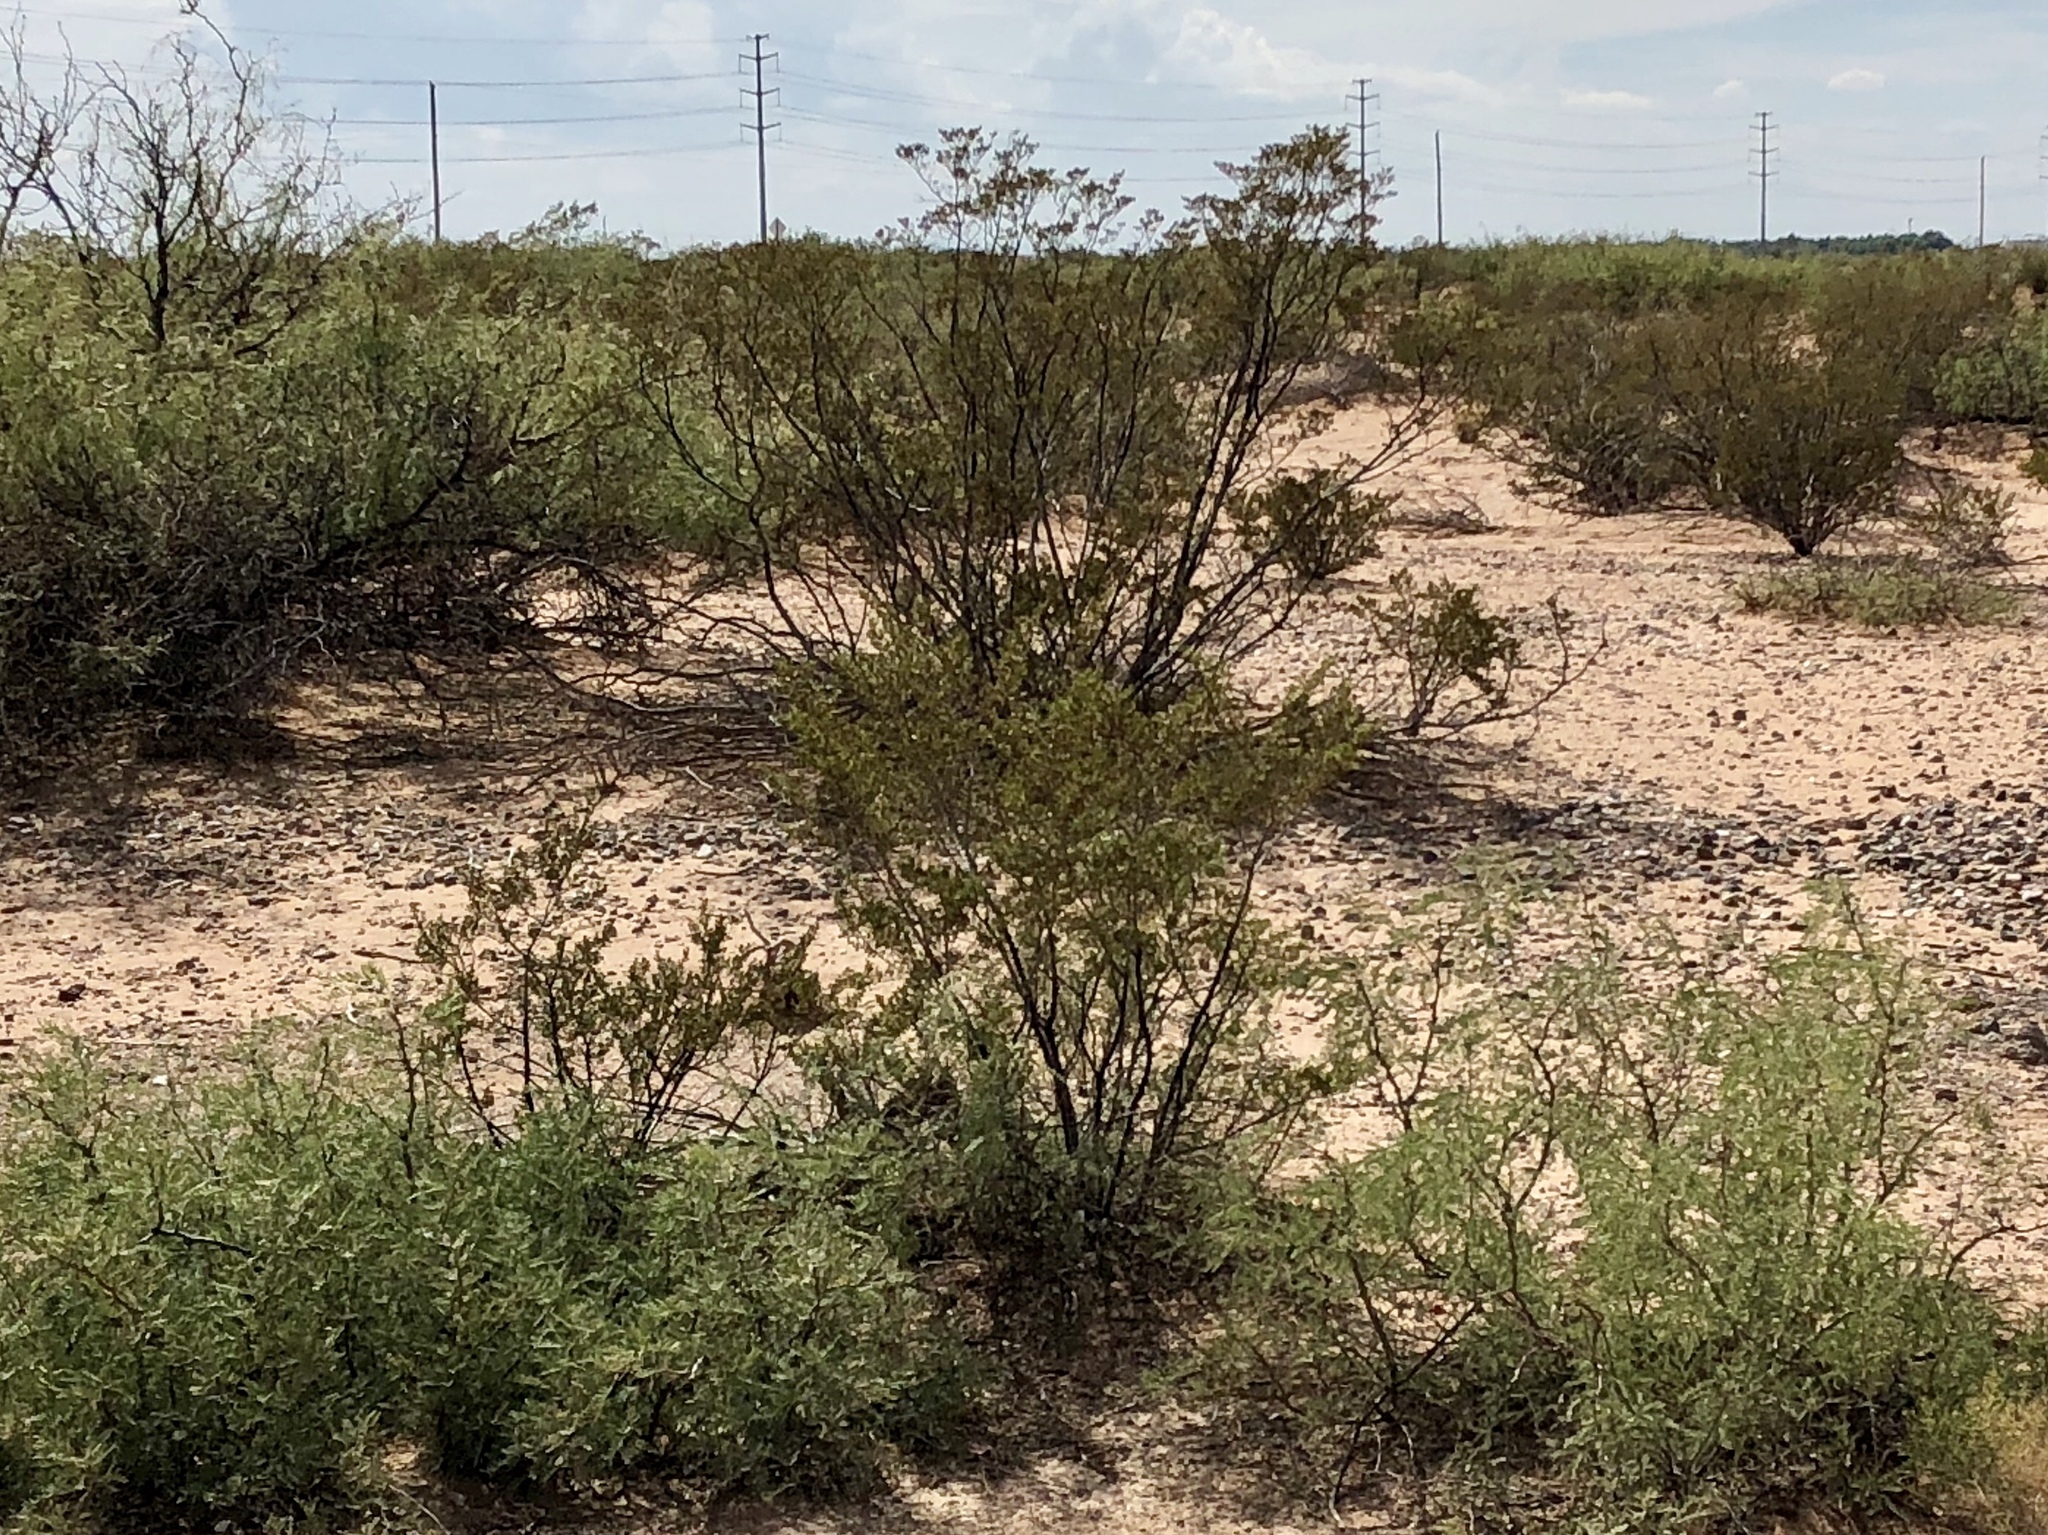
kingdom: Plantae
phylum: Tracheophyta
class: Magnoliopsida
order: Zygophyllales
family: Zygophyllaceae
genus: Larrea
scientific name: Larrea tridentata
